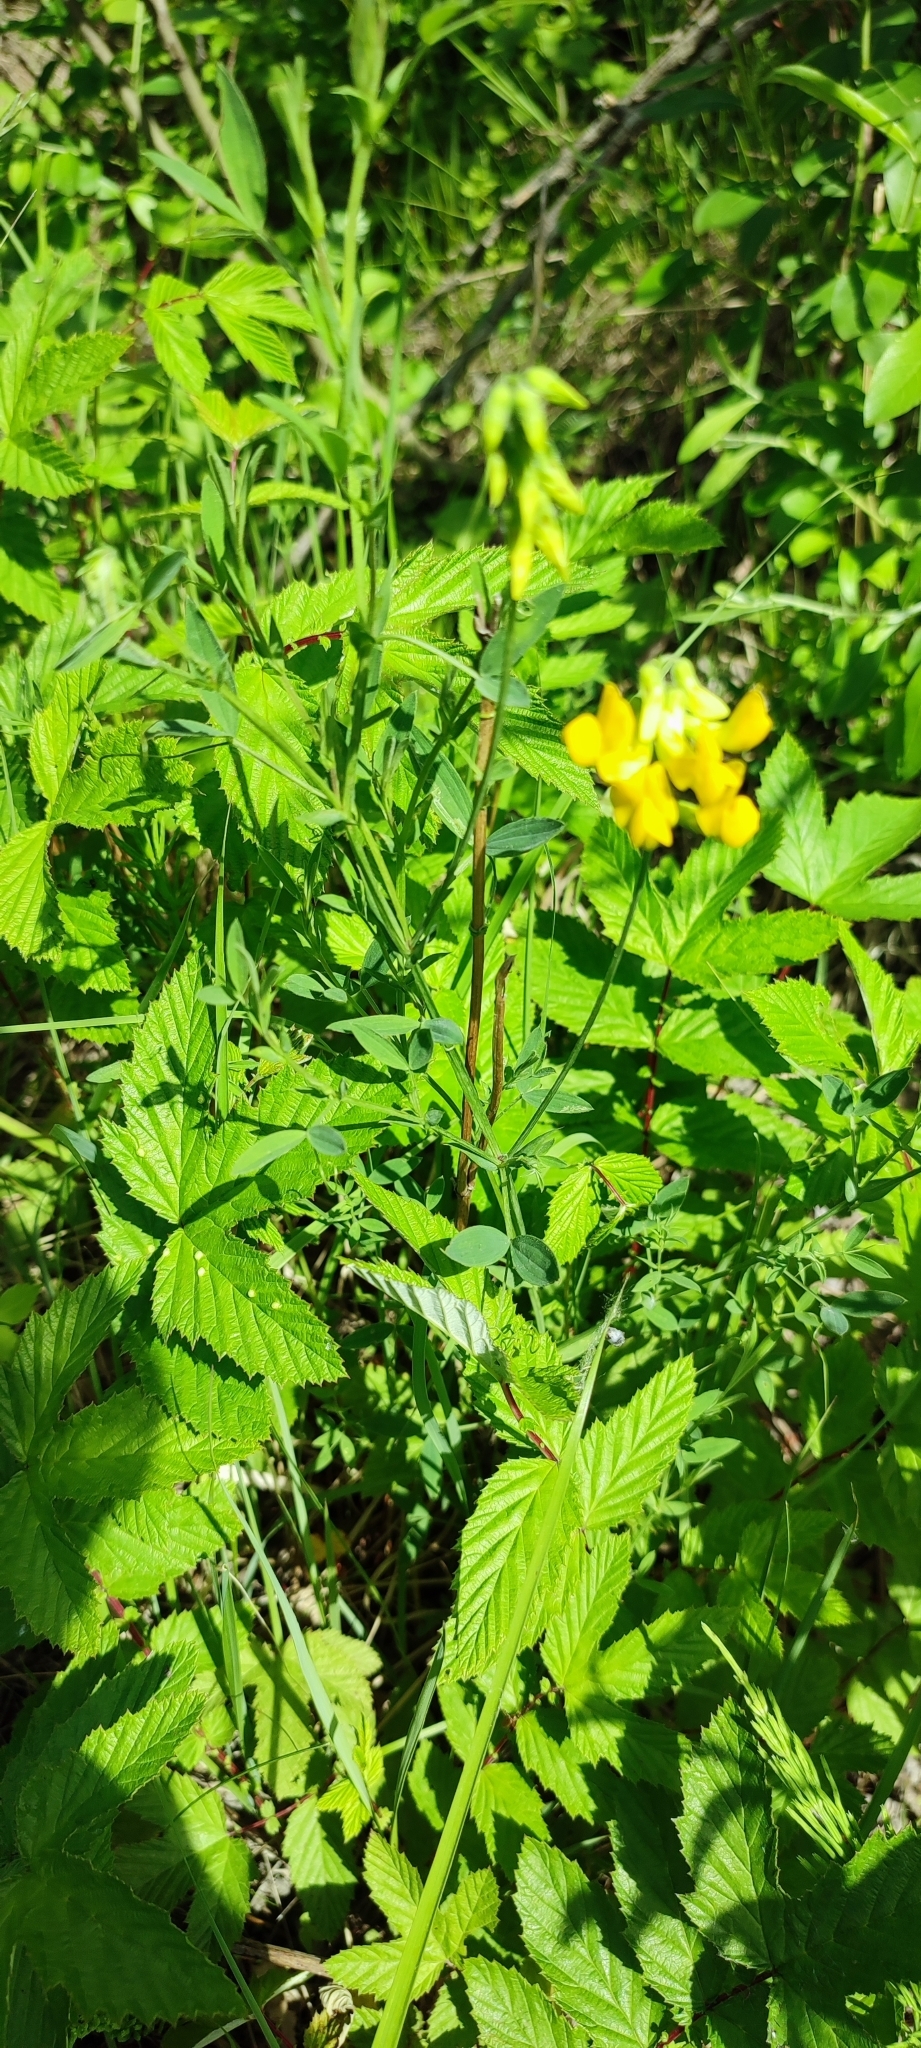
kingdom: Plantae
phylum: Tracheophyta
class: Magnoliopsida
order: Fabales
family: Fabaceae
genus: Lathyrus
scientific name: Lathyrus pratensis
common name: Meadow vetchling
